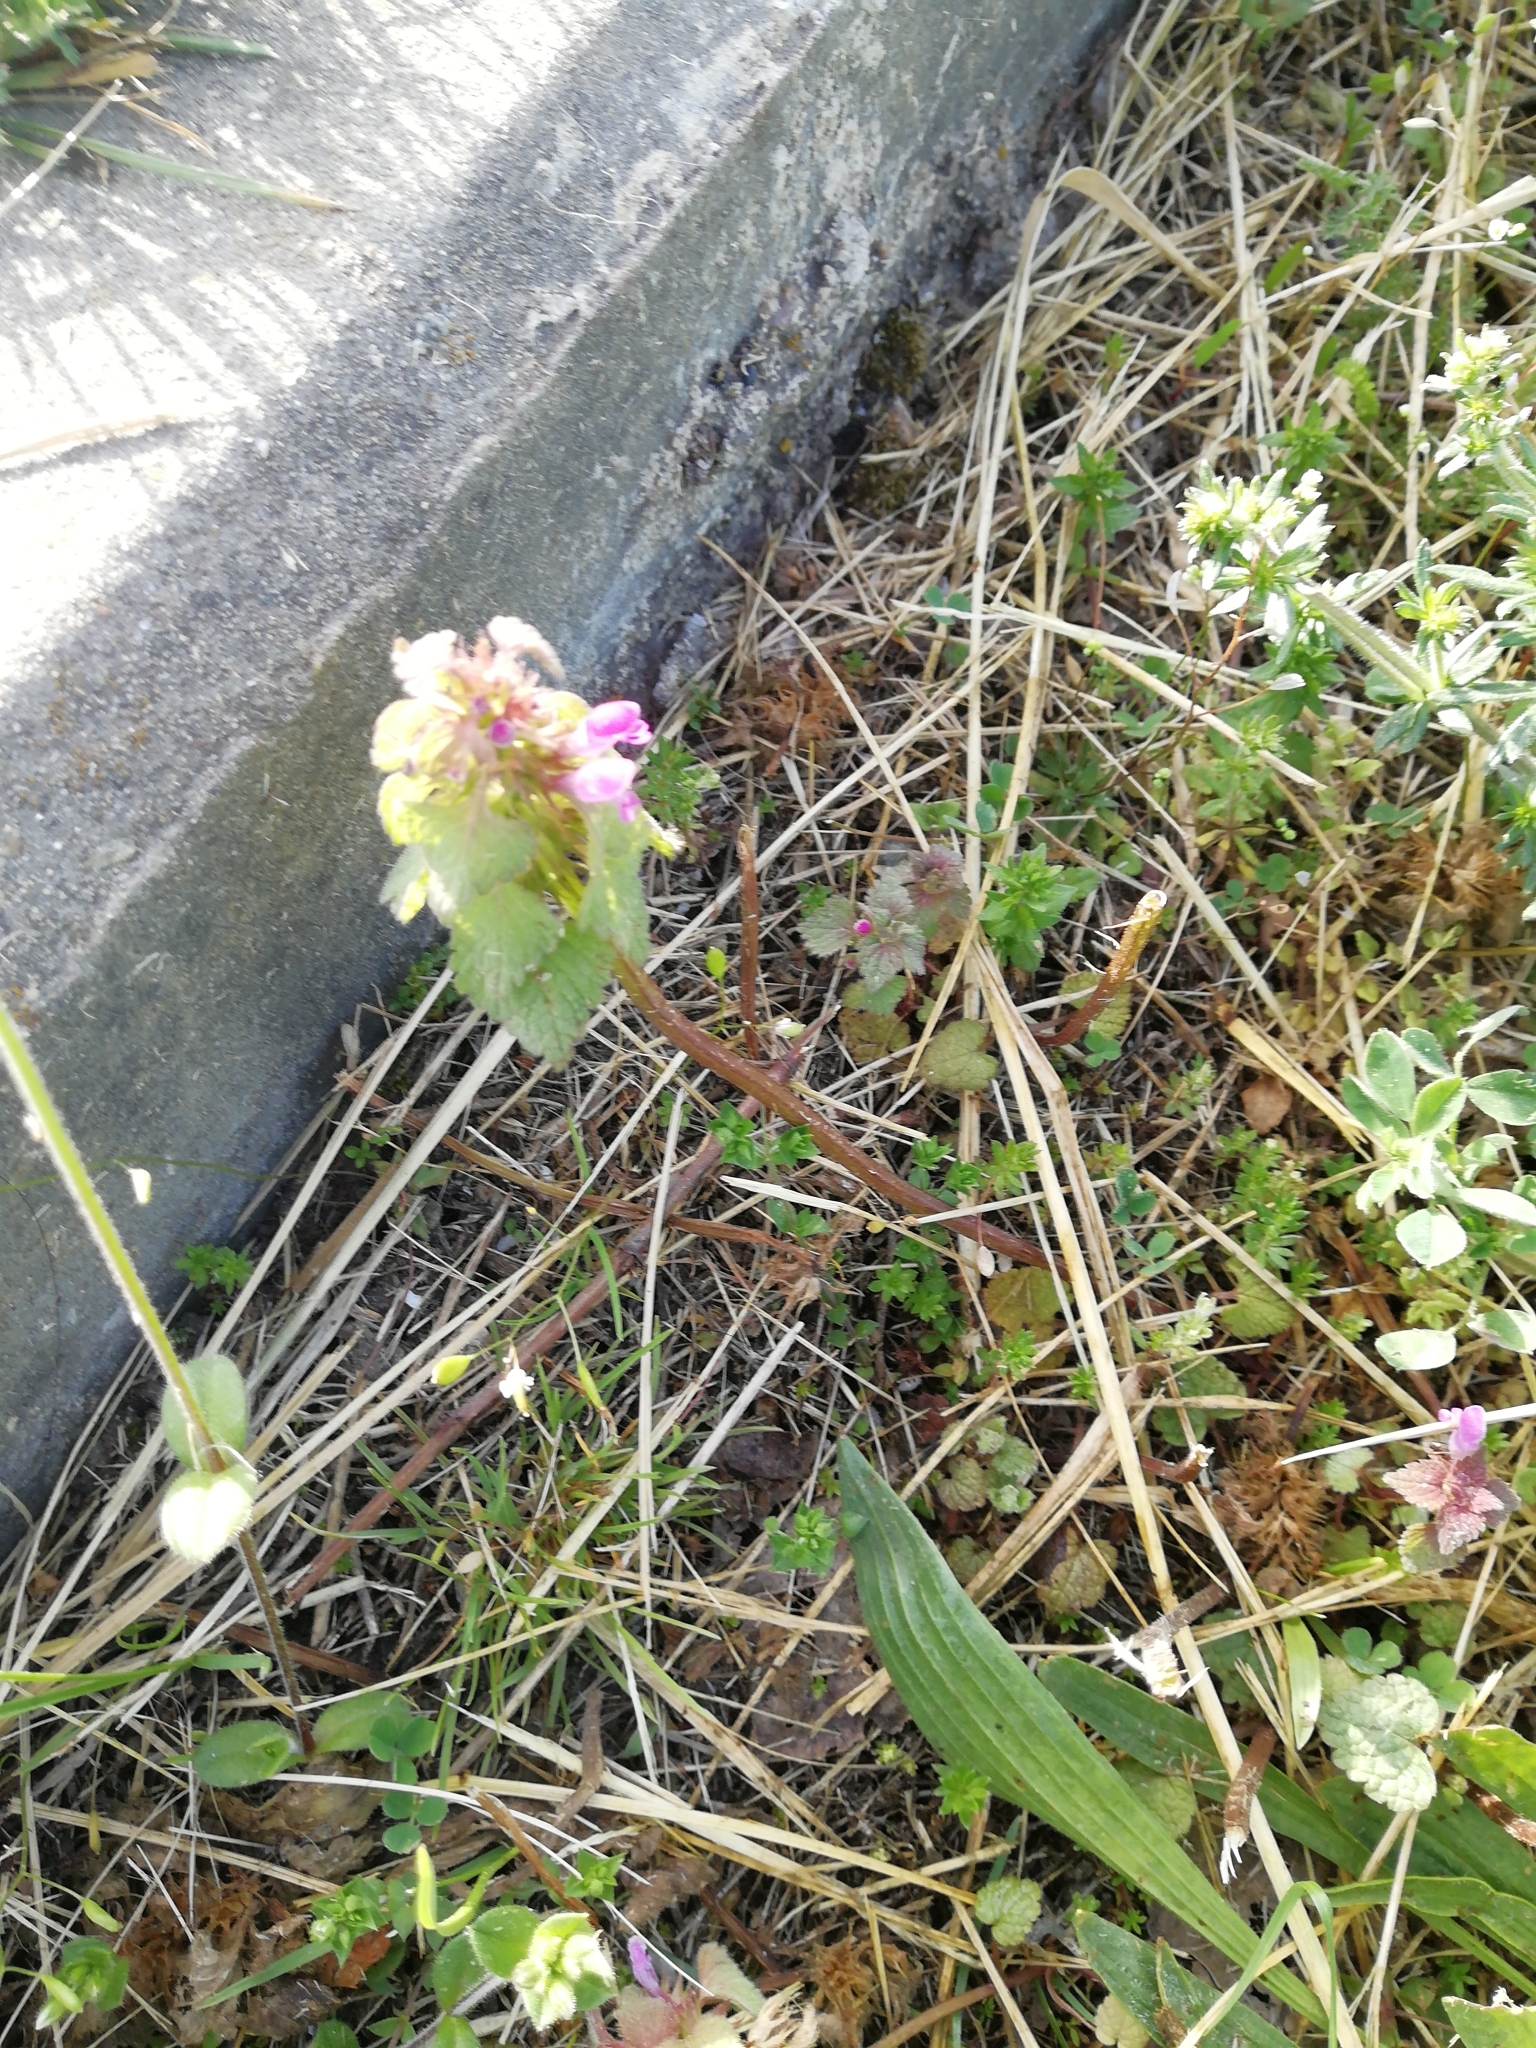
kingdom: Plantae
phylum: Tracheophyta
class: Magnoliopsida
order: Lamiales
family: Lamiaceae
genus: Lamium
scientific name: Lamium purpureum
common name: Red dead-nettle
